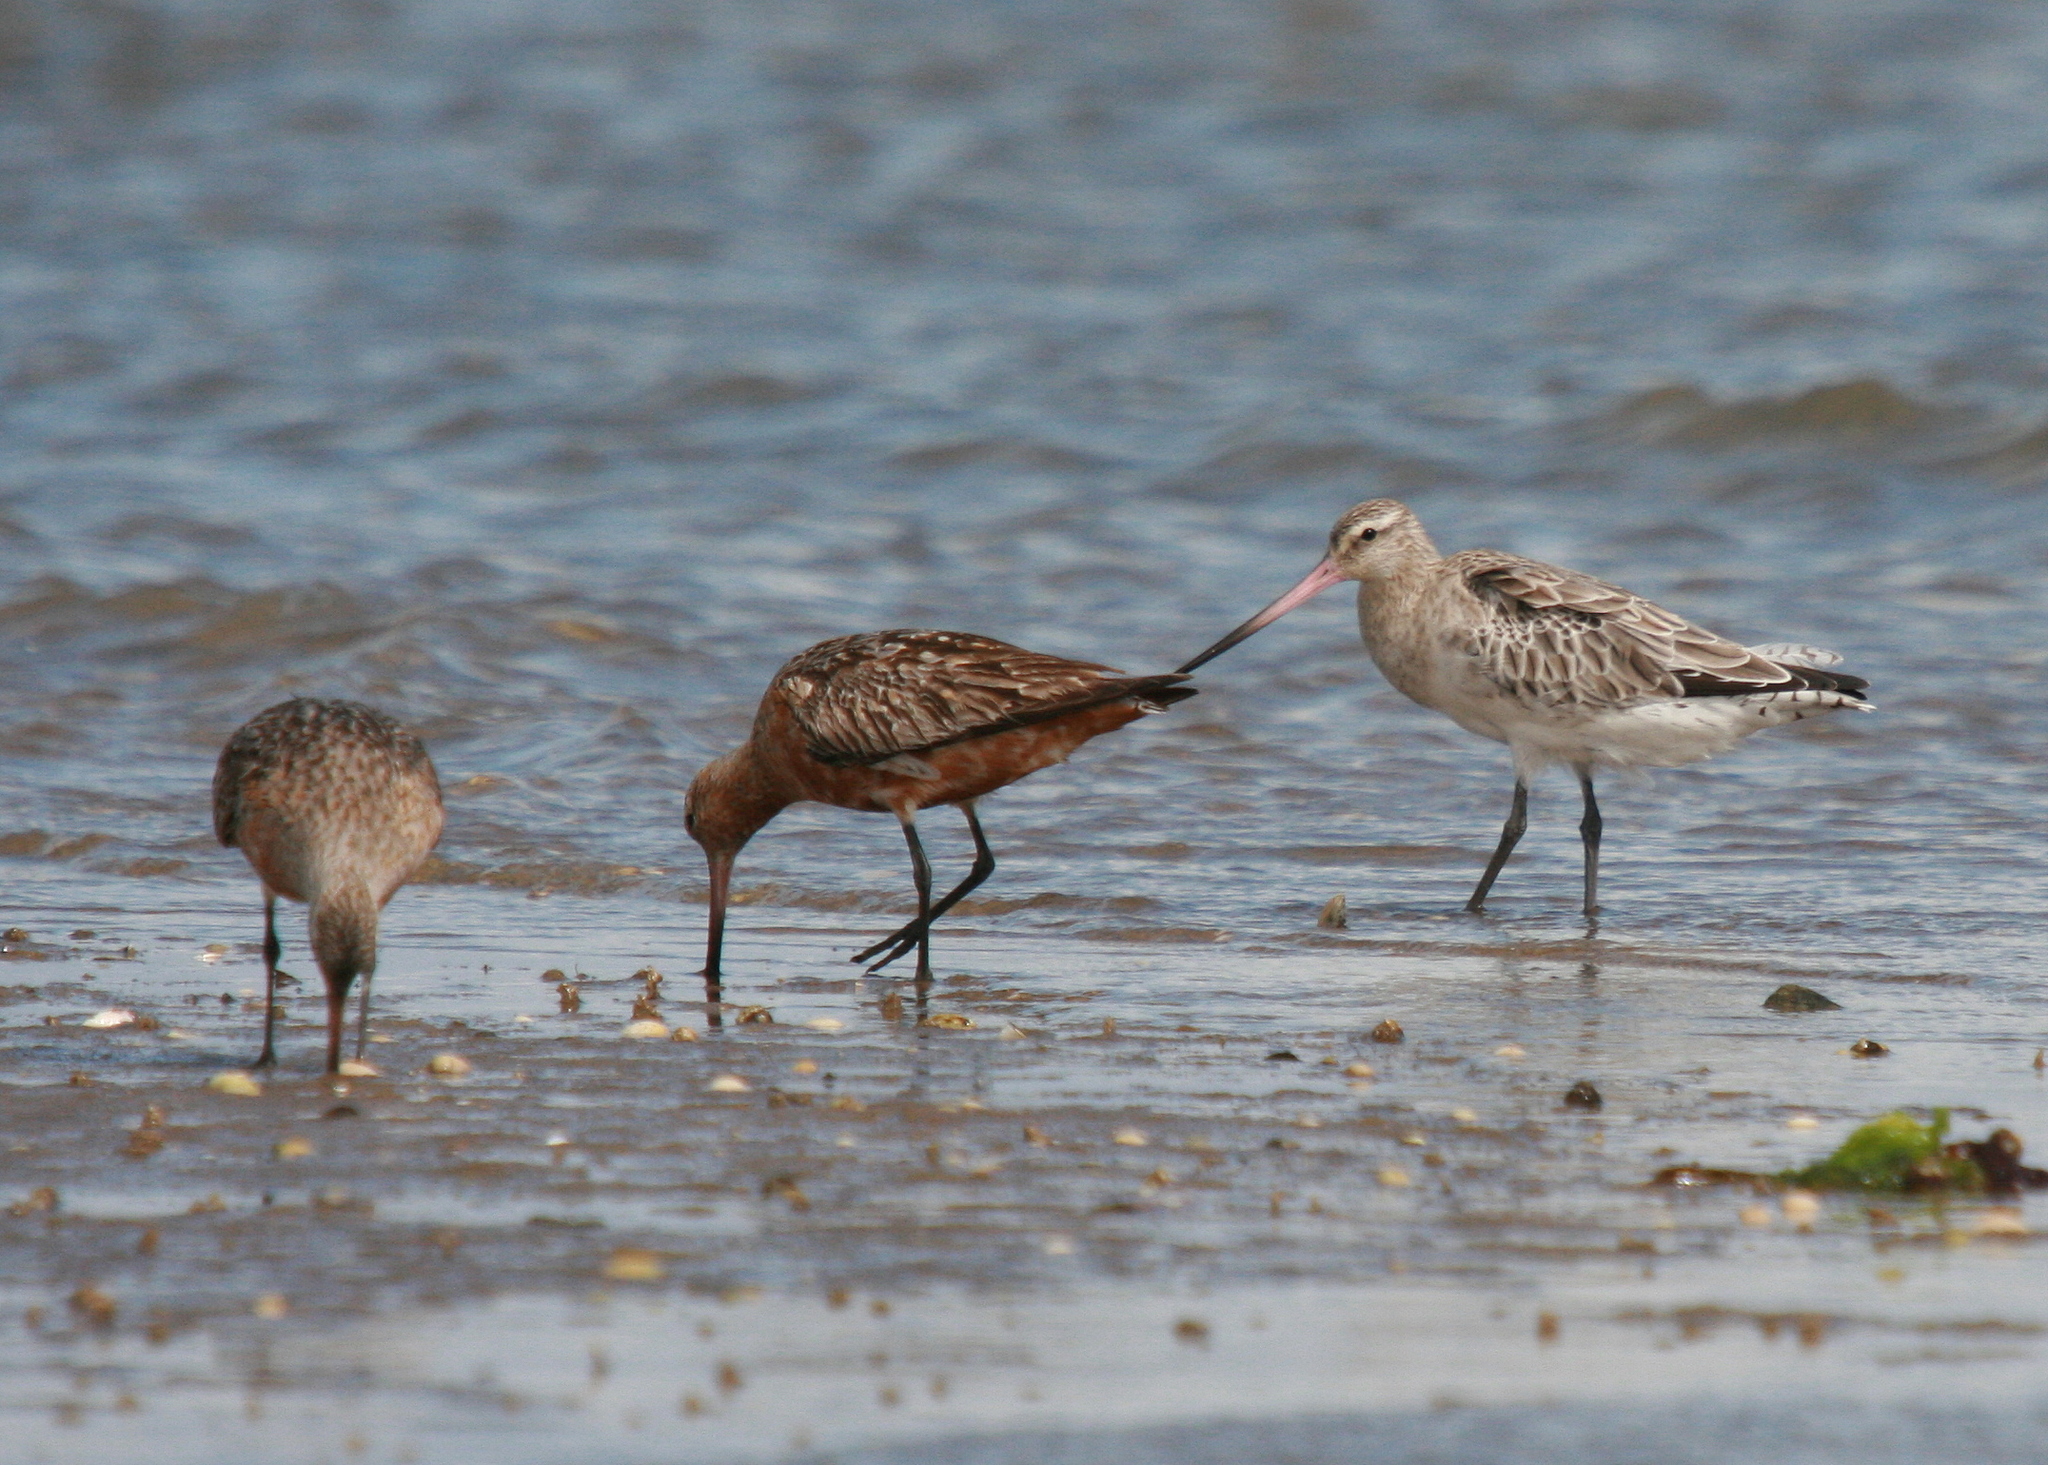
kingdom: Animalia
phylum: Chordata
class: Aves
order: Charadriiformes
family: Scolopacidae
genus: Limosa
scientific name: Limosa lapponica
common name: Bar-tailed godwit
